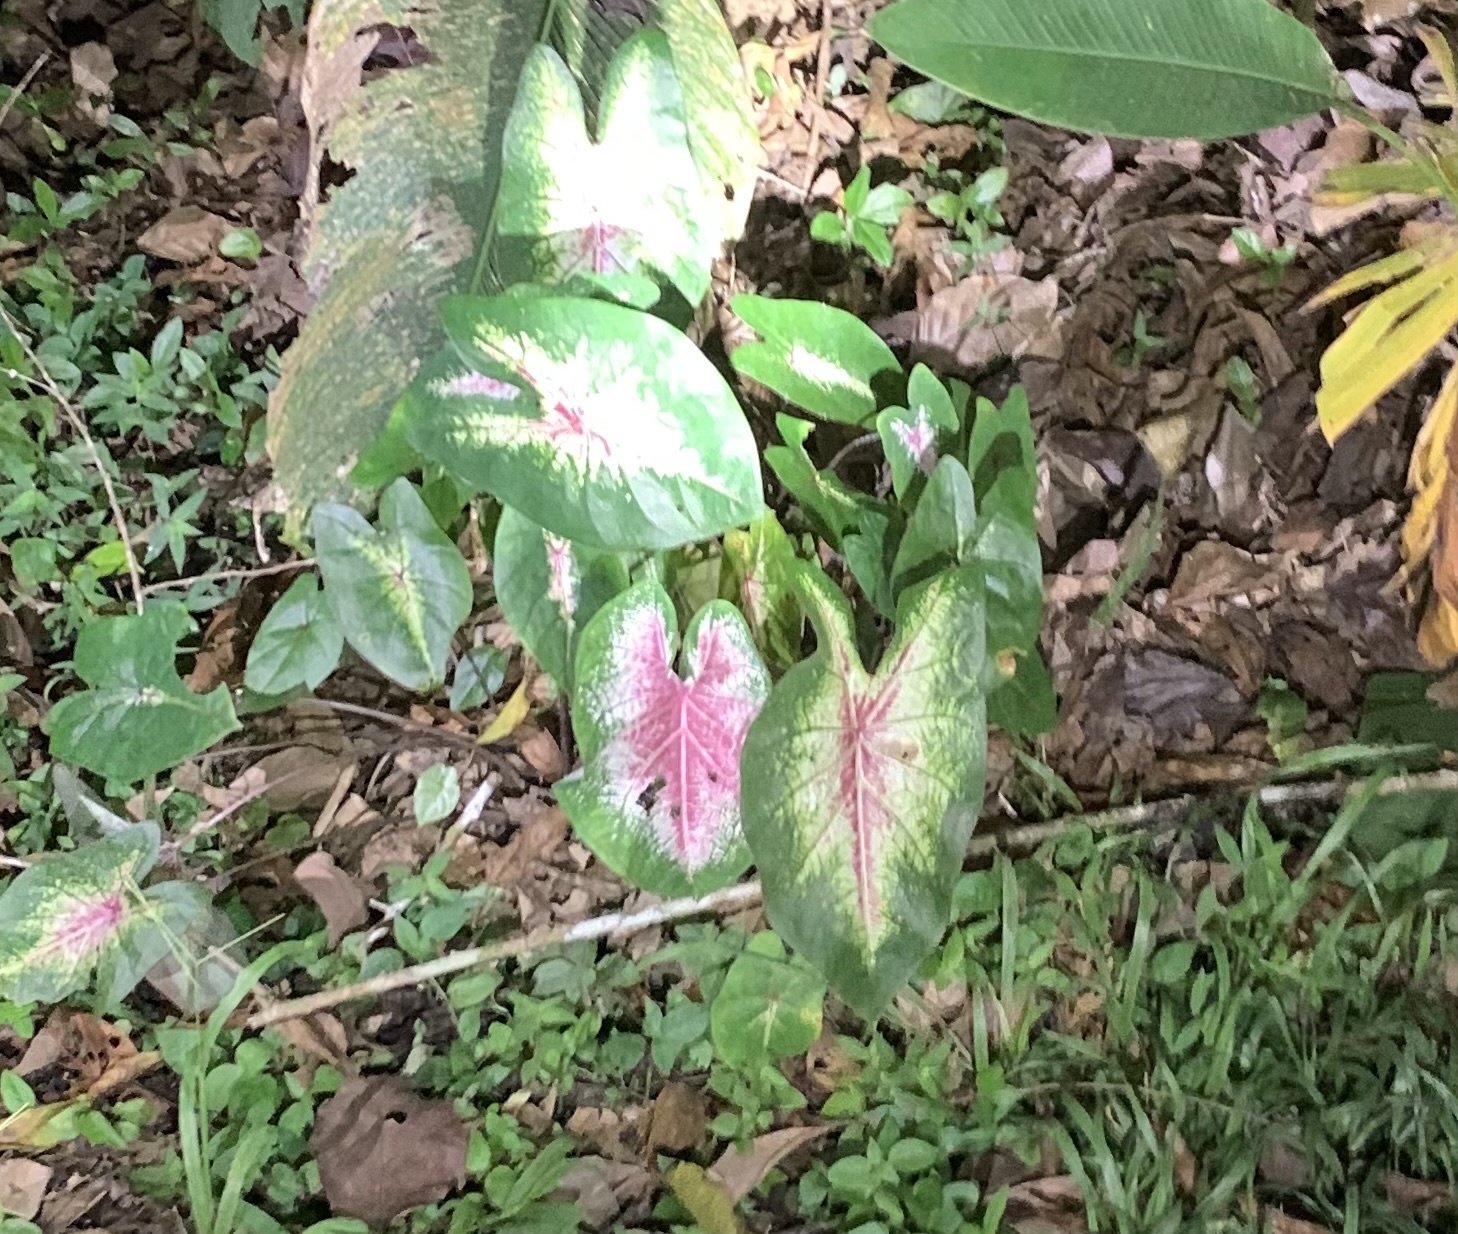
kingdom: Plantae
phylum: Tracheophyta
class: Liliopsida
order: Alismatales
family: Araceae
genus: Caladium
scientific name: Caladium bicolor
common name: Artist's pallet
